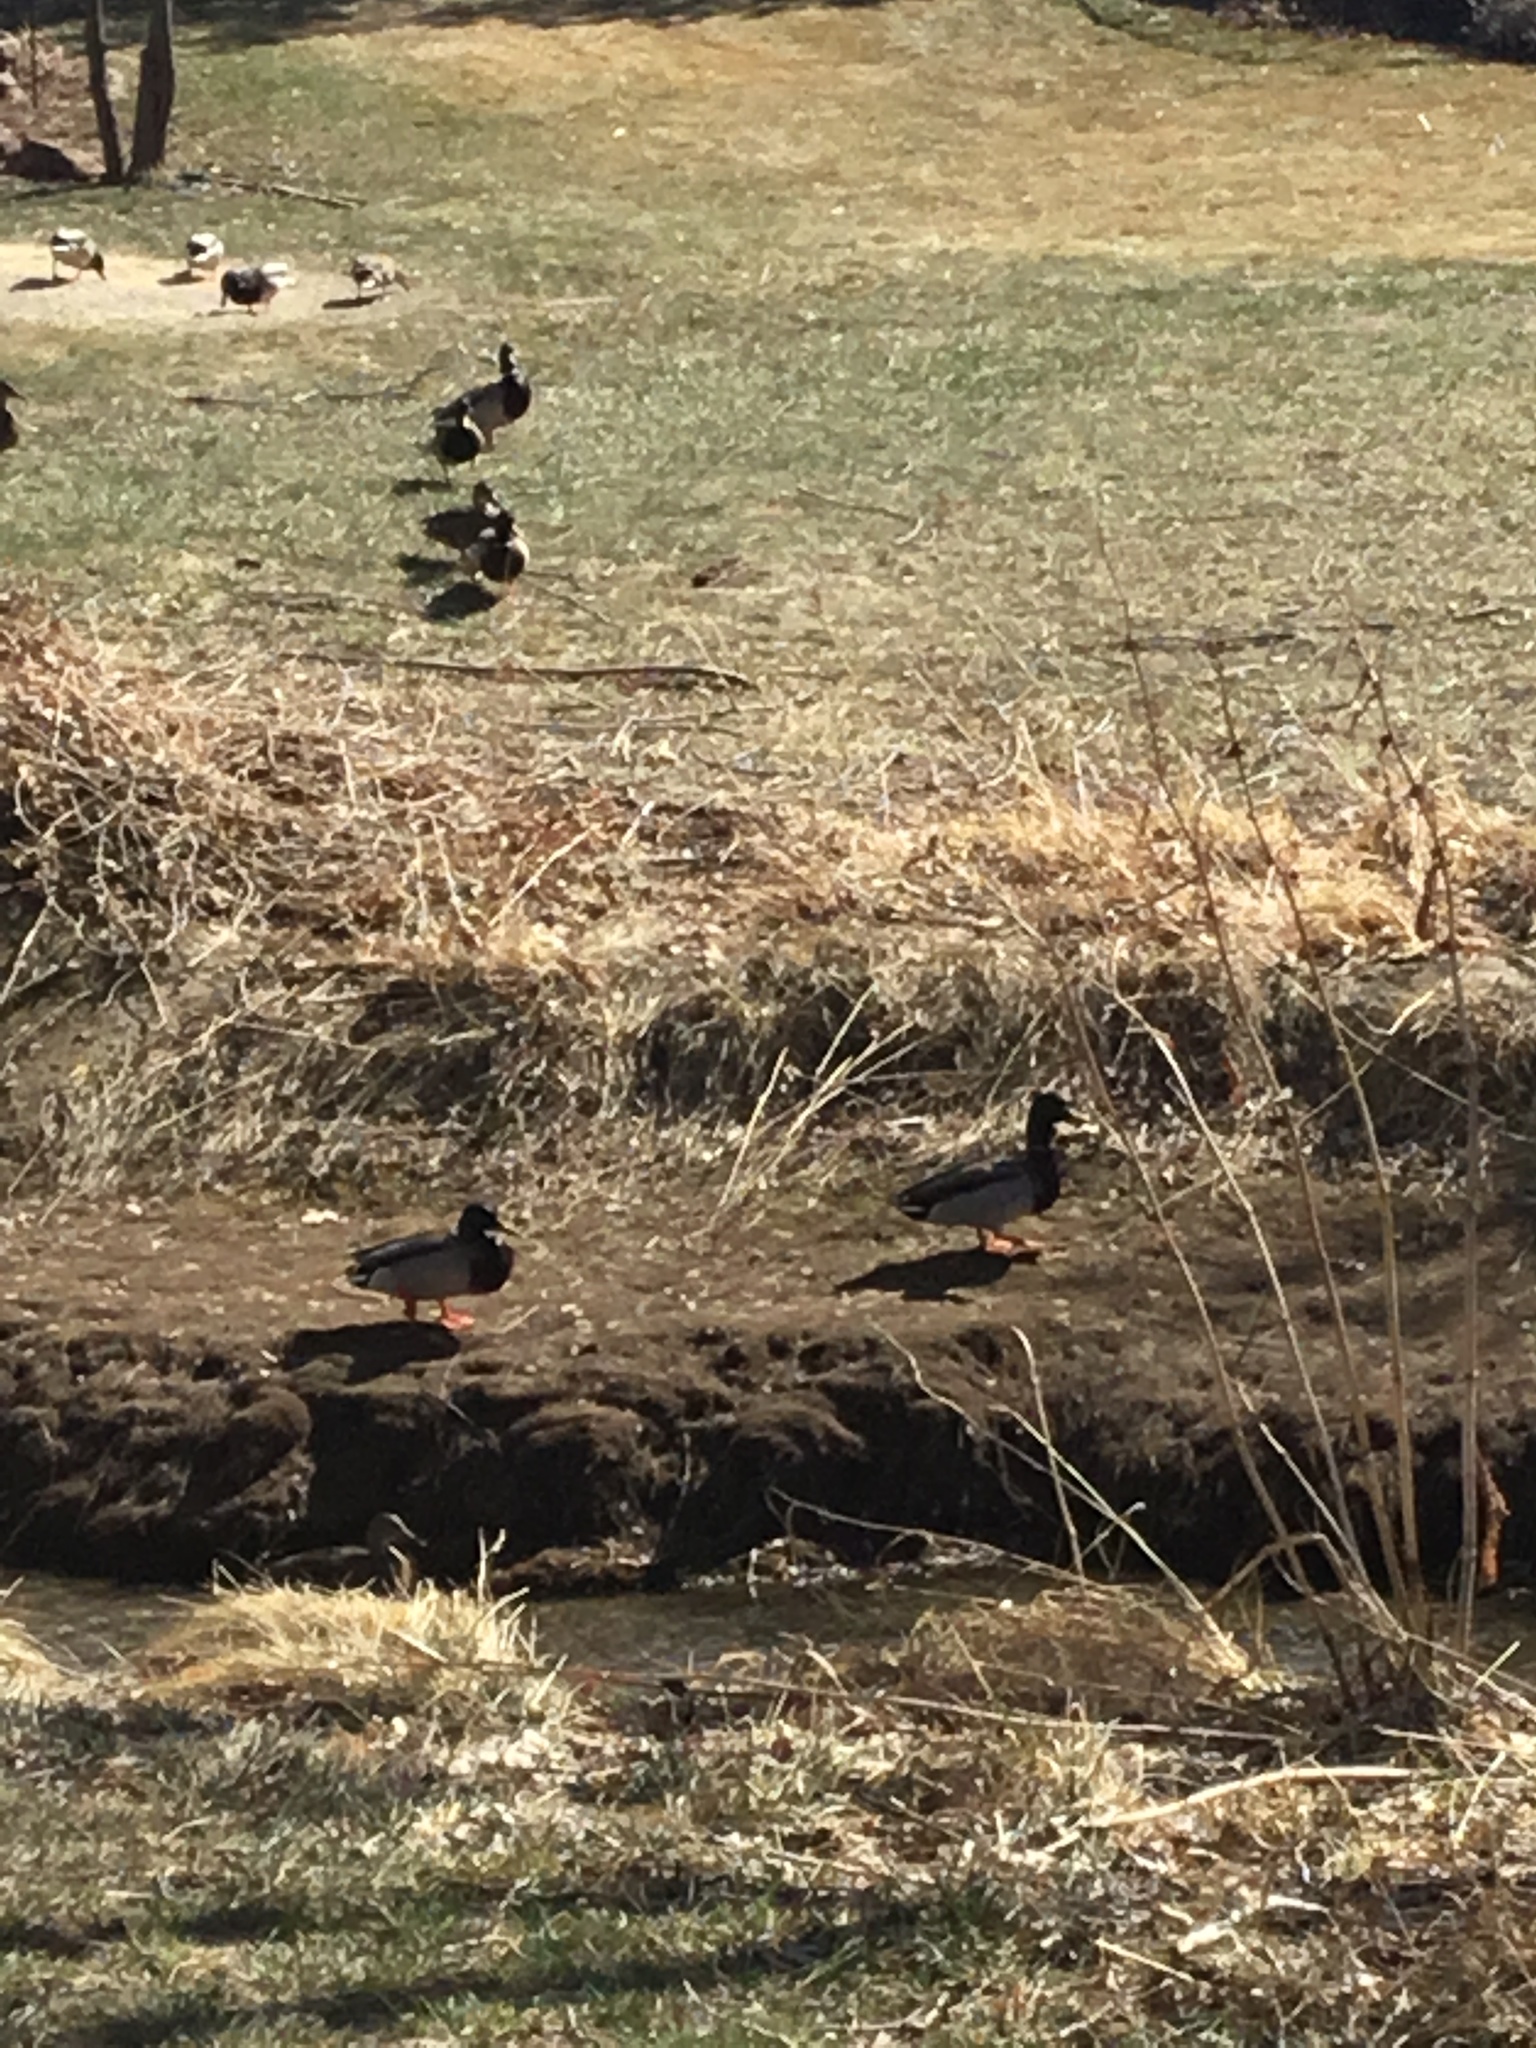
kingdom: Animalia
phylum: Chordata
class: Aves
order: Anseriformes
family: Anatidae
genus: Anas
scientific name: Anas platyrhynchos
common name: Mallard
